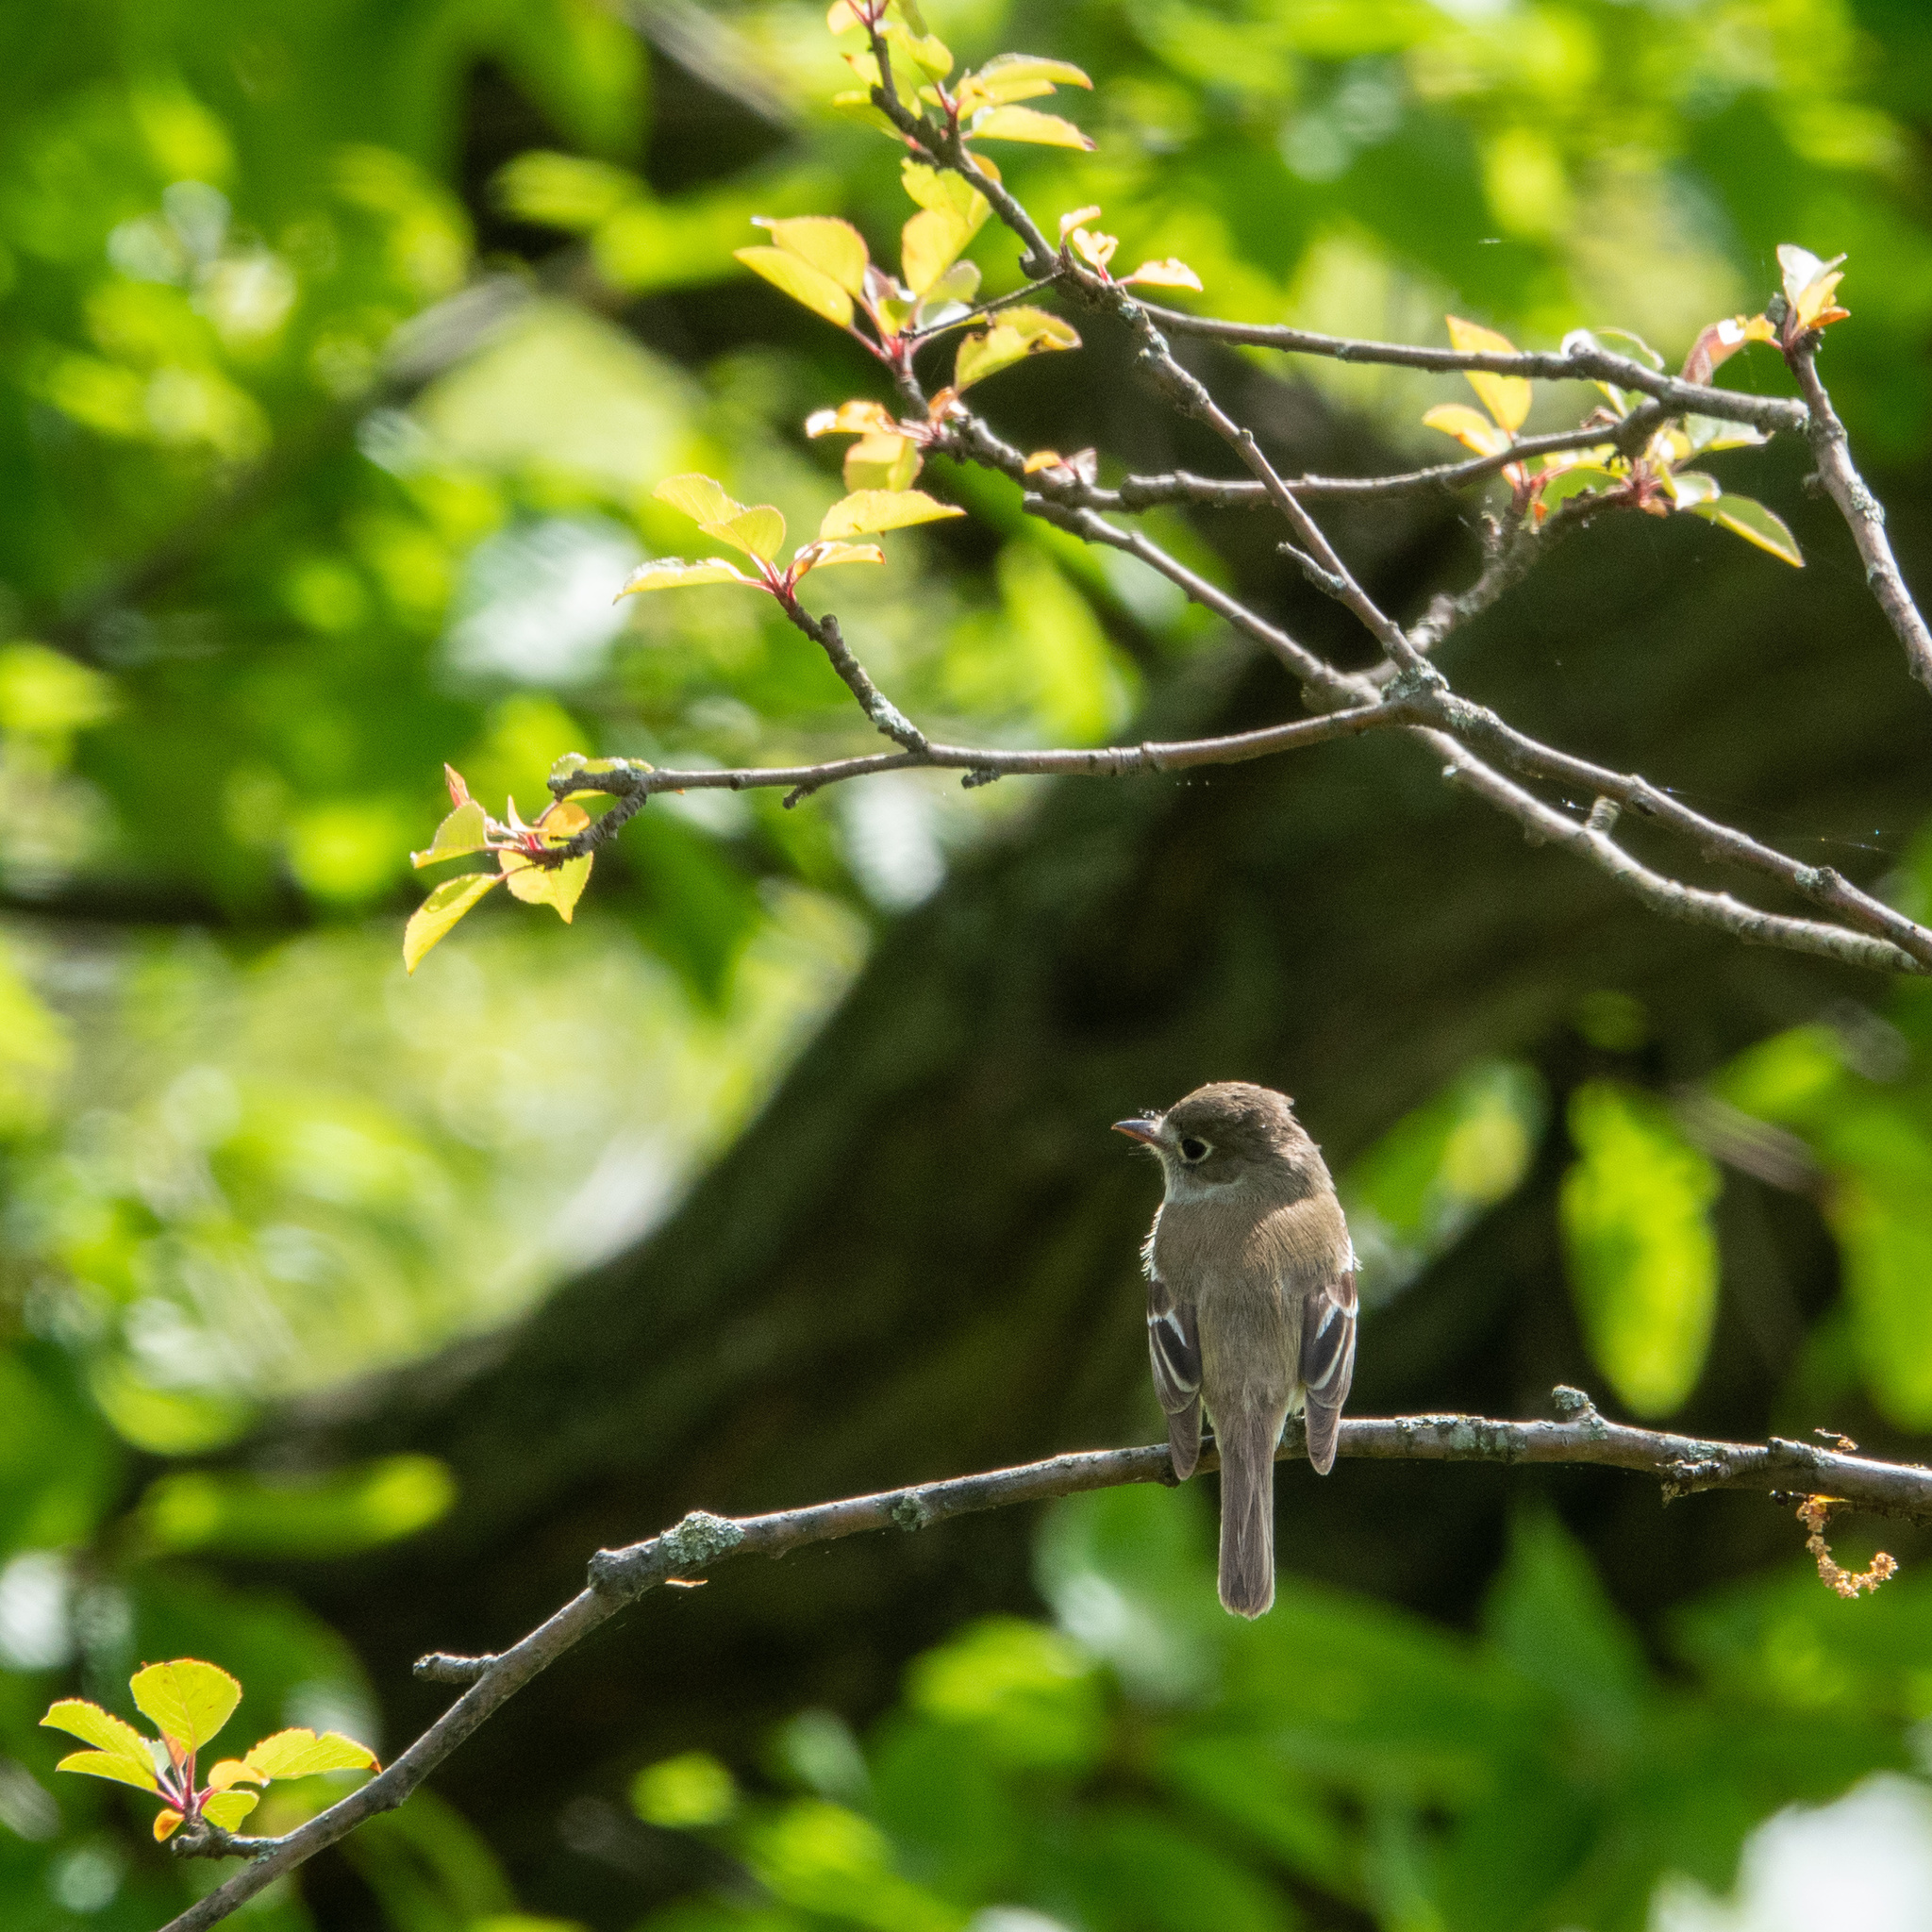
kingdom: Animalia
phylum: Chordata
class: Aves
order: Passeriformes
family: Tyrannidae
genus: Empidonax
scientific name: Empidonax minimus
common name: Least flycatcher
